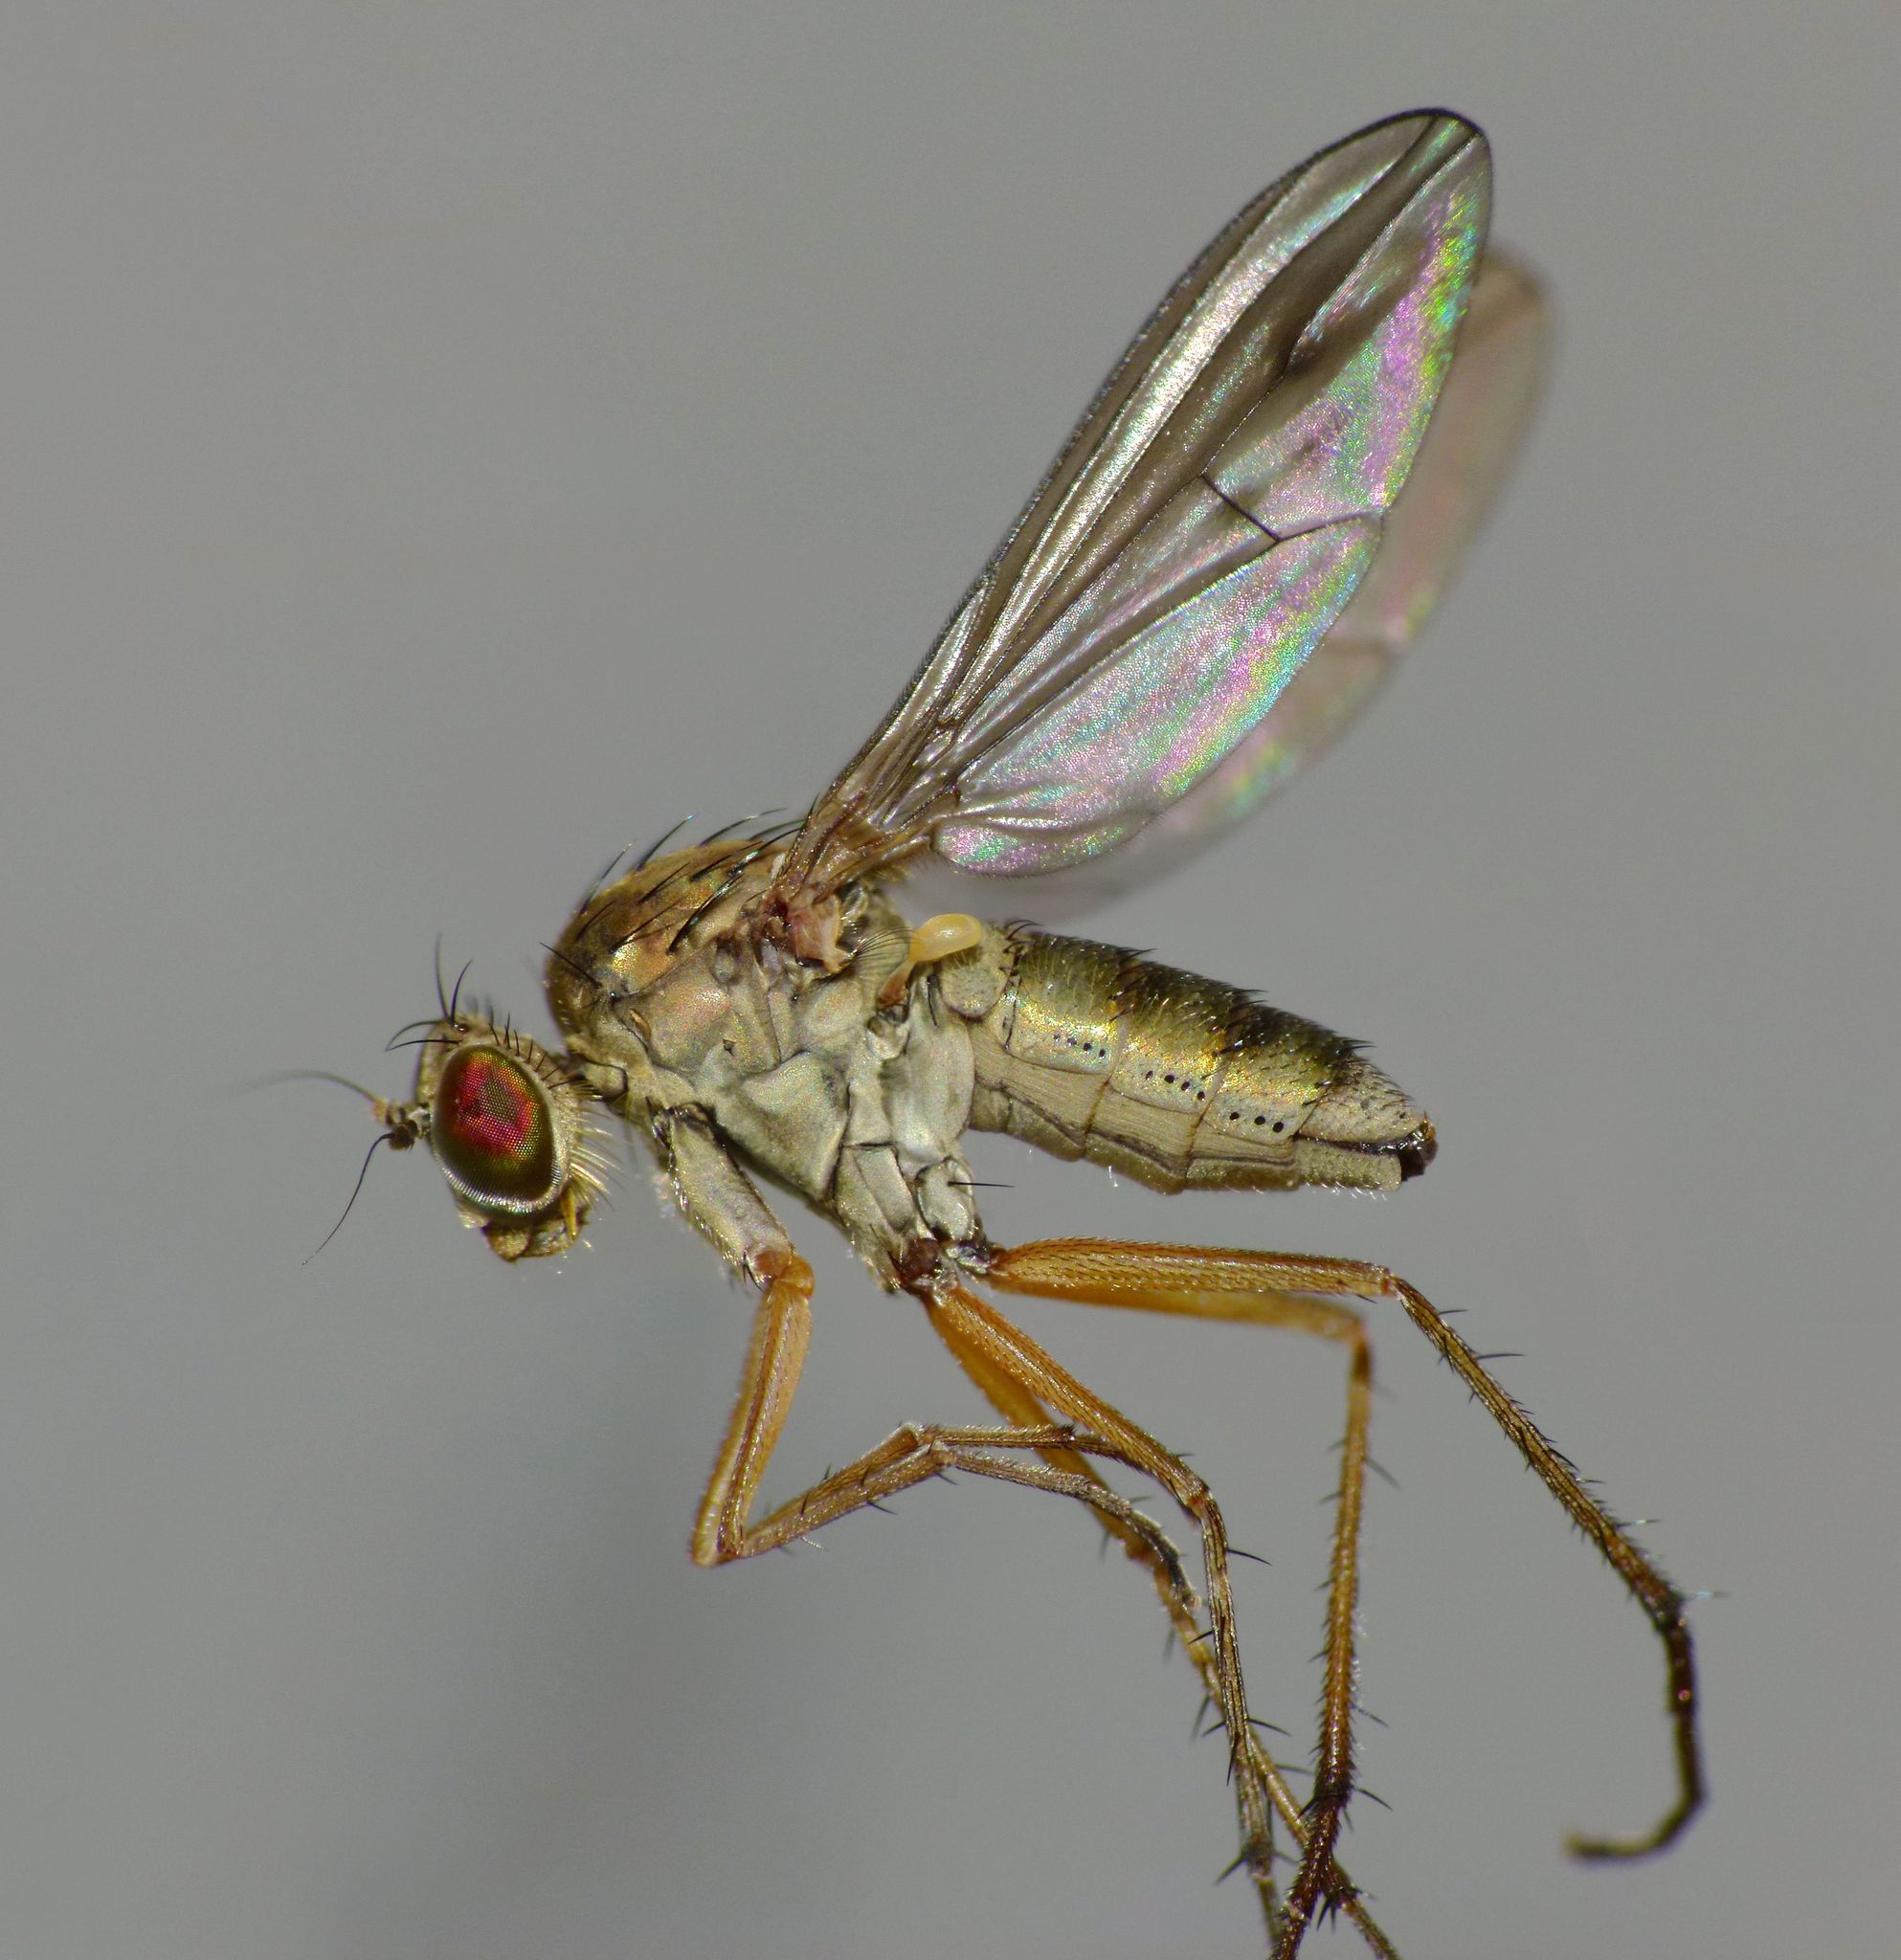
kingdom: Animalia
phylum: Arthropoda
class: Insecta
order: Diptera
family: Dolichopodidae
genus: Helichochaetus
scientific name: Helichochaetus discifer
